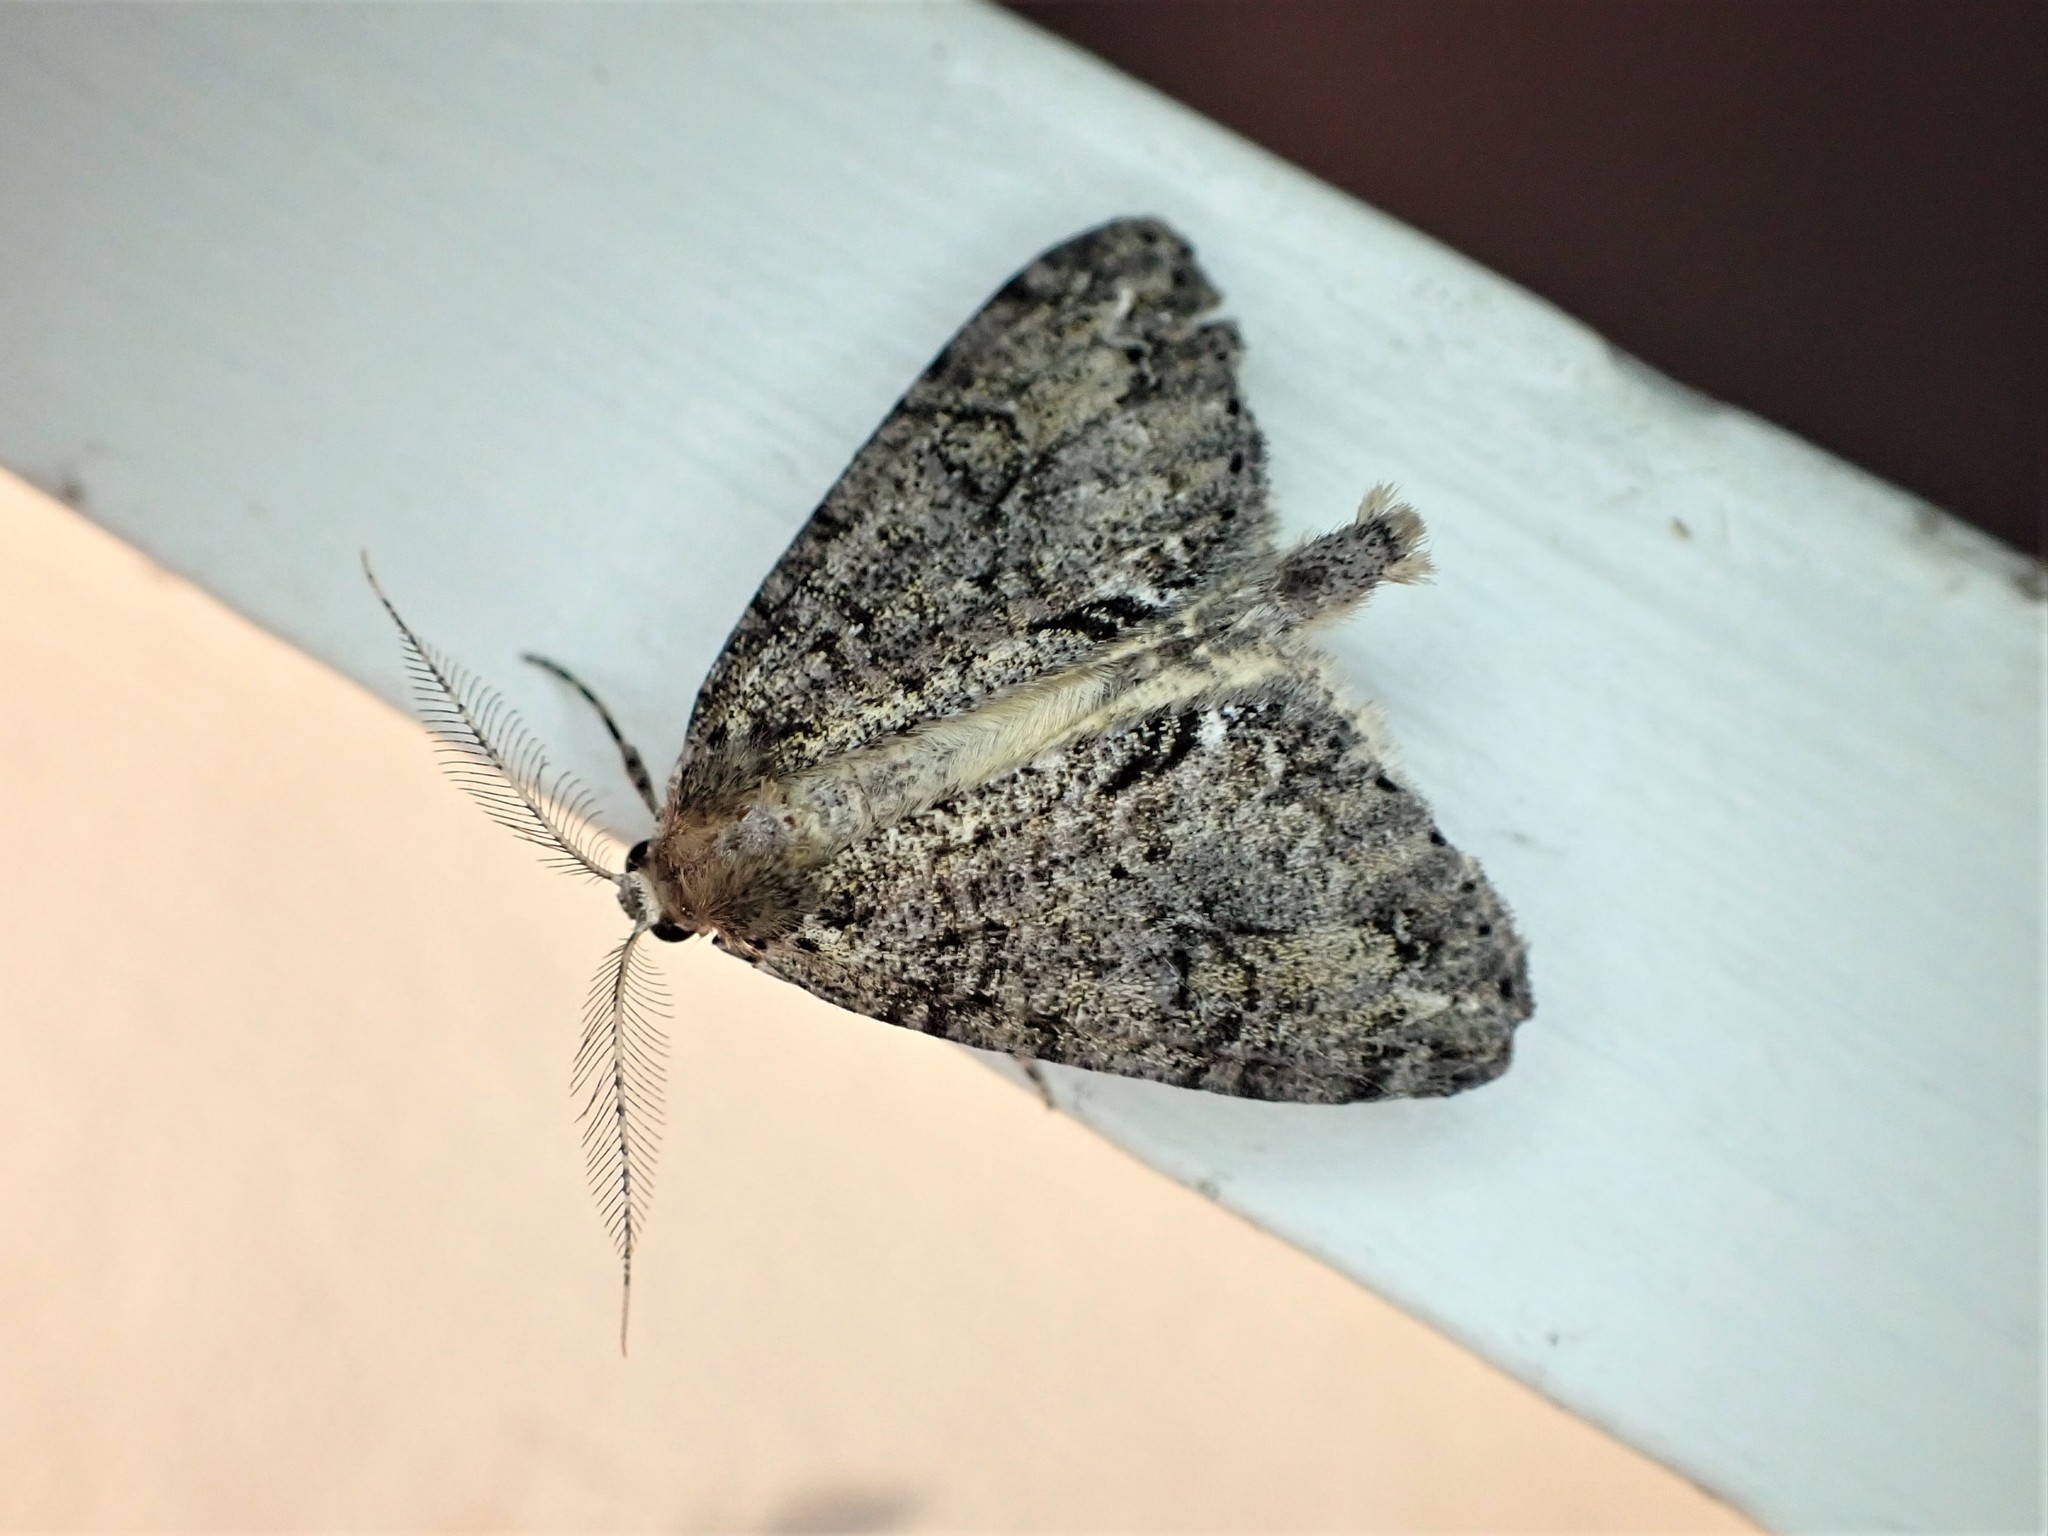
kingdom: Animalia
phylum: Arthropoda
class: Insecta
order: Lepidoptera
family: Geometridae
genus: Pseudocoremia
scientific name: Pseudocoremia suavis
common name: Common forest looper
